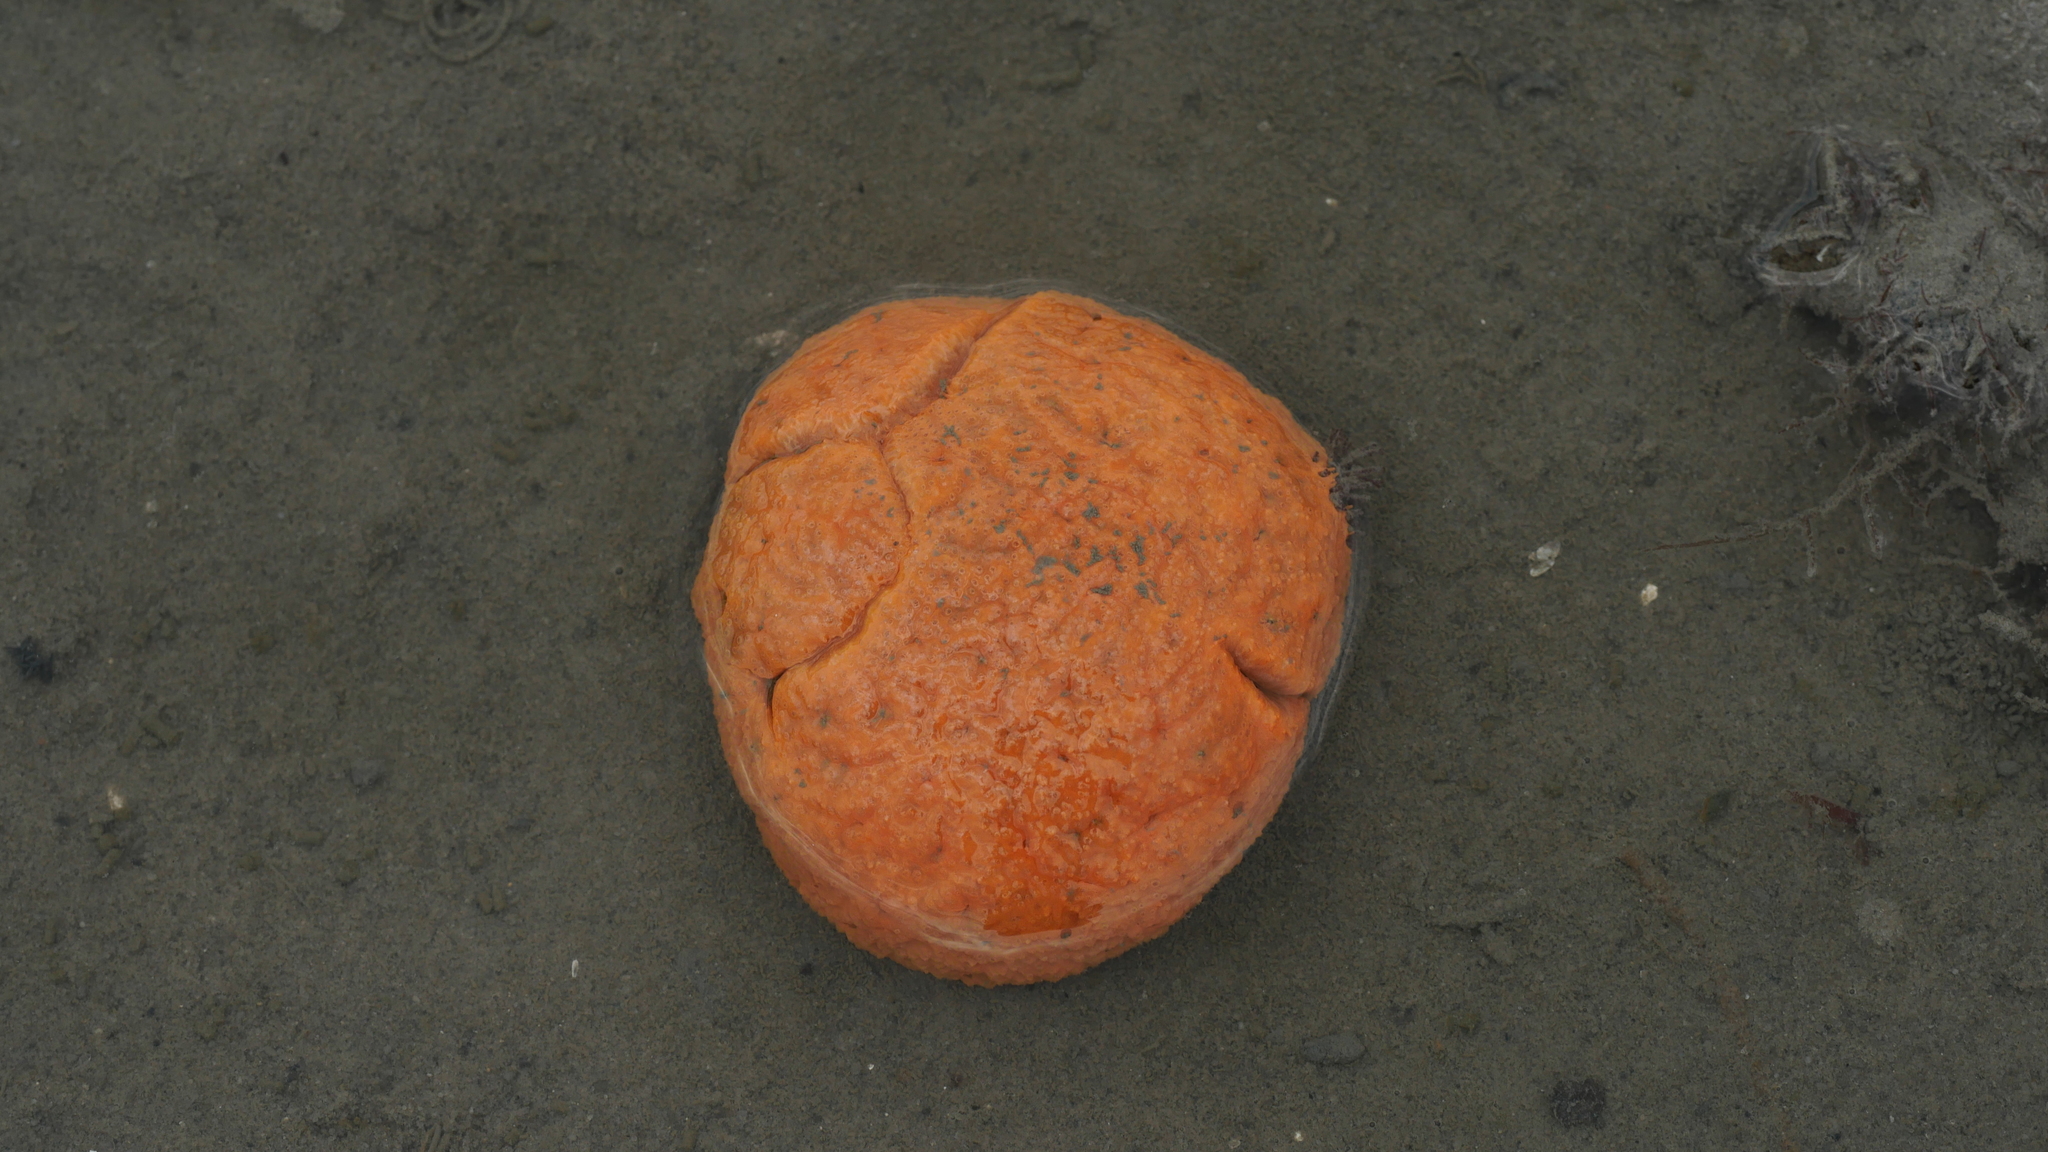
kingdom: Animalia
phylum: Chordata
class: Ascidiacea
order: Aplousobranchia
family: Polyclinidae
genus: Aplidium
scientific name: Aplidium stellatum
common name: Atlantic sea pork
